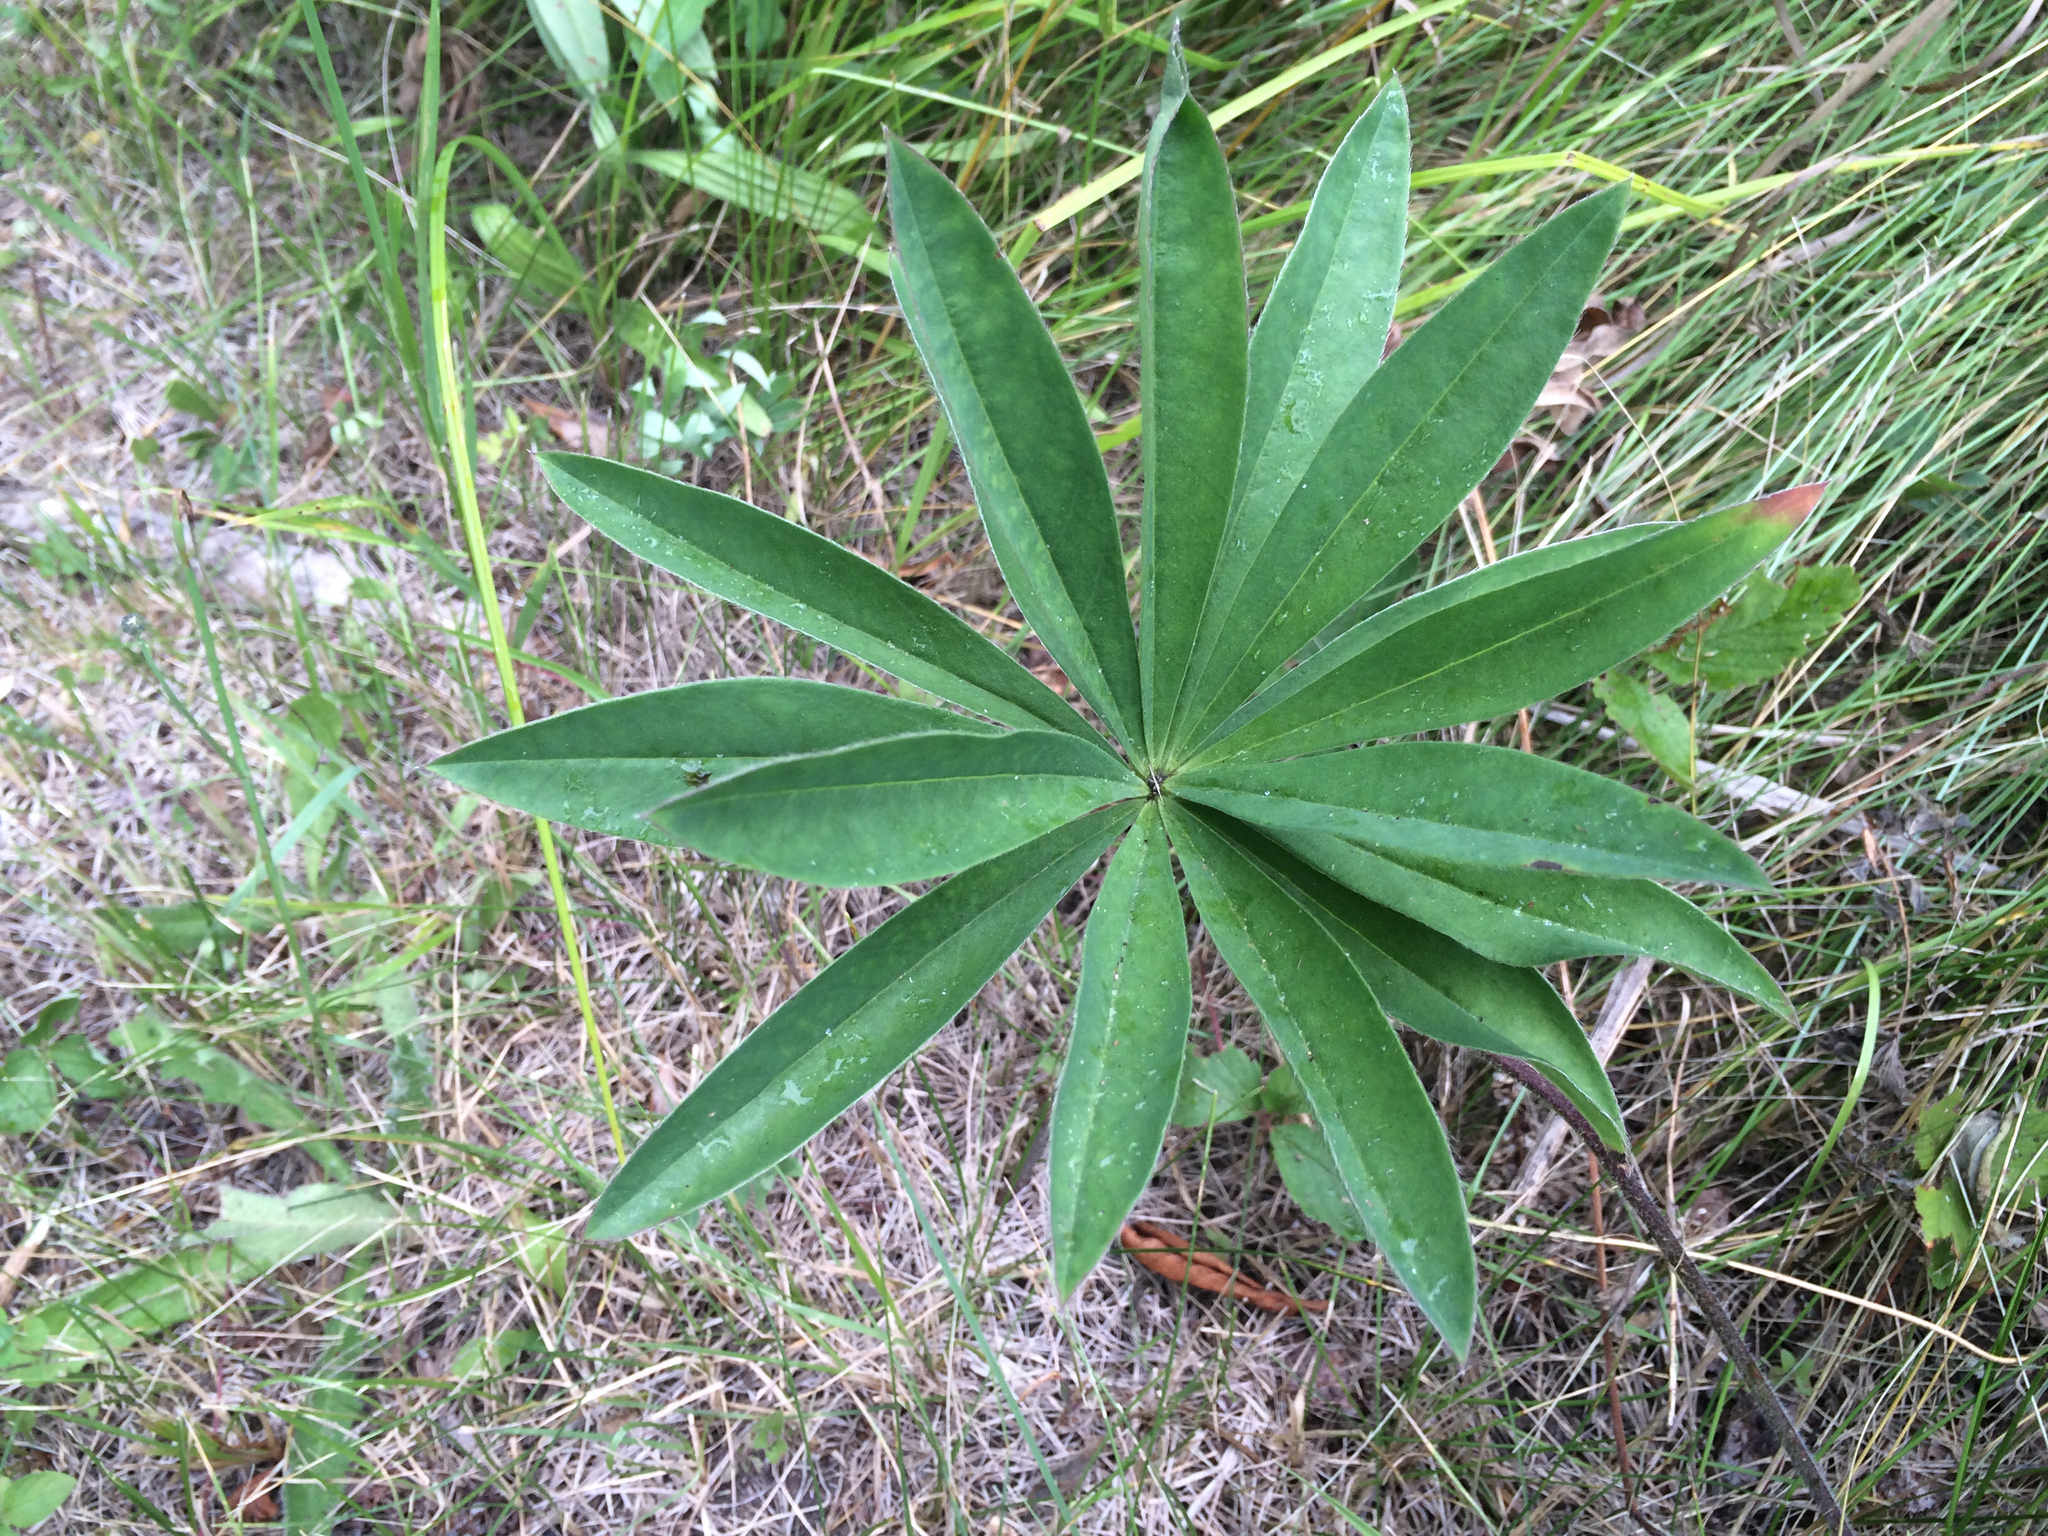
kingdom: Plantae
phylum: Tracheophyta
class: Magnoliopsida
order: Fabales
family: Fabaceae
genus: Lupinus
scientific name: Lupinus polyphyllus
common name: Garden lupin
